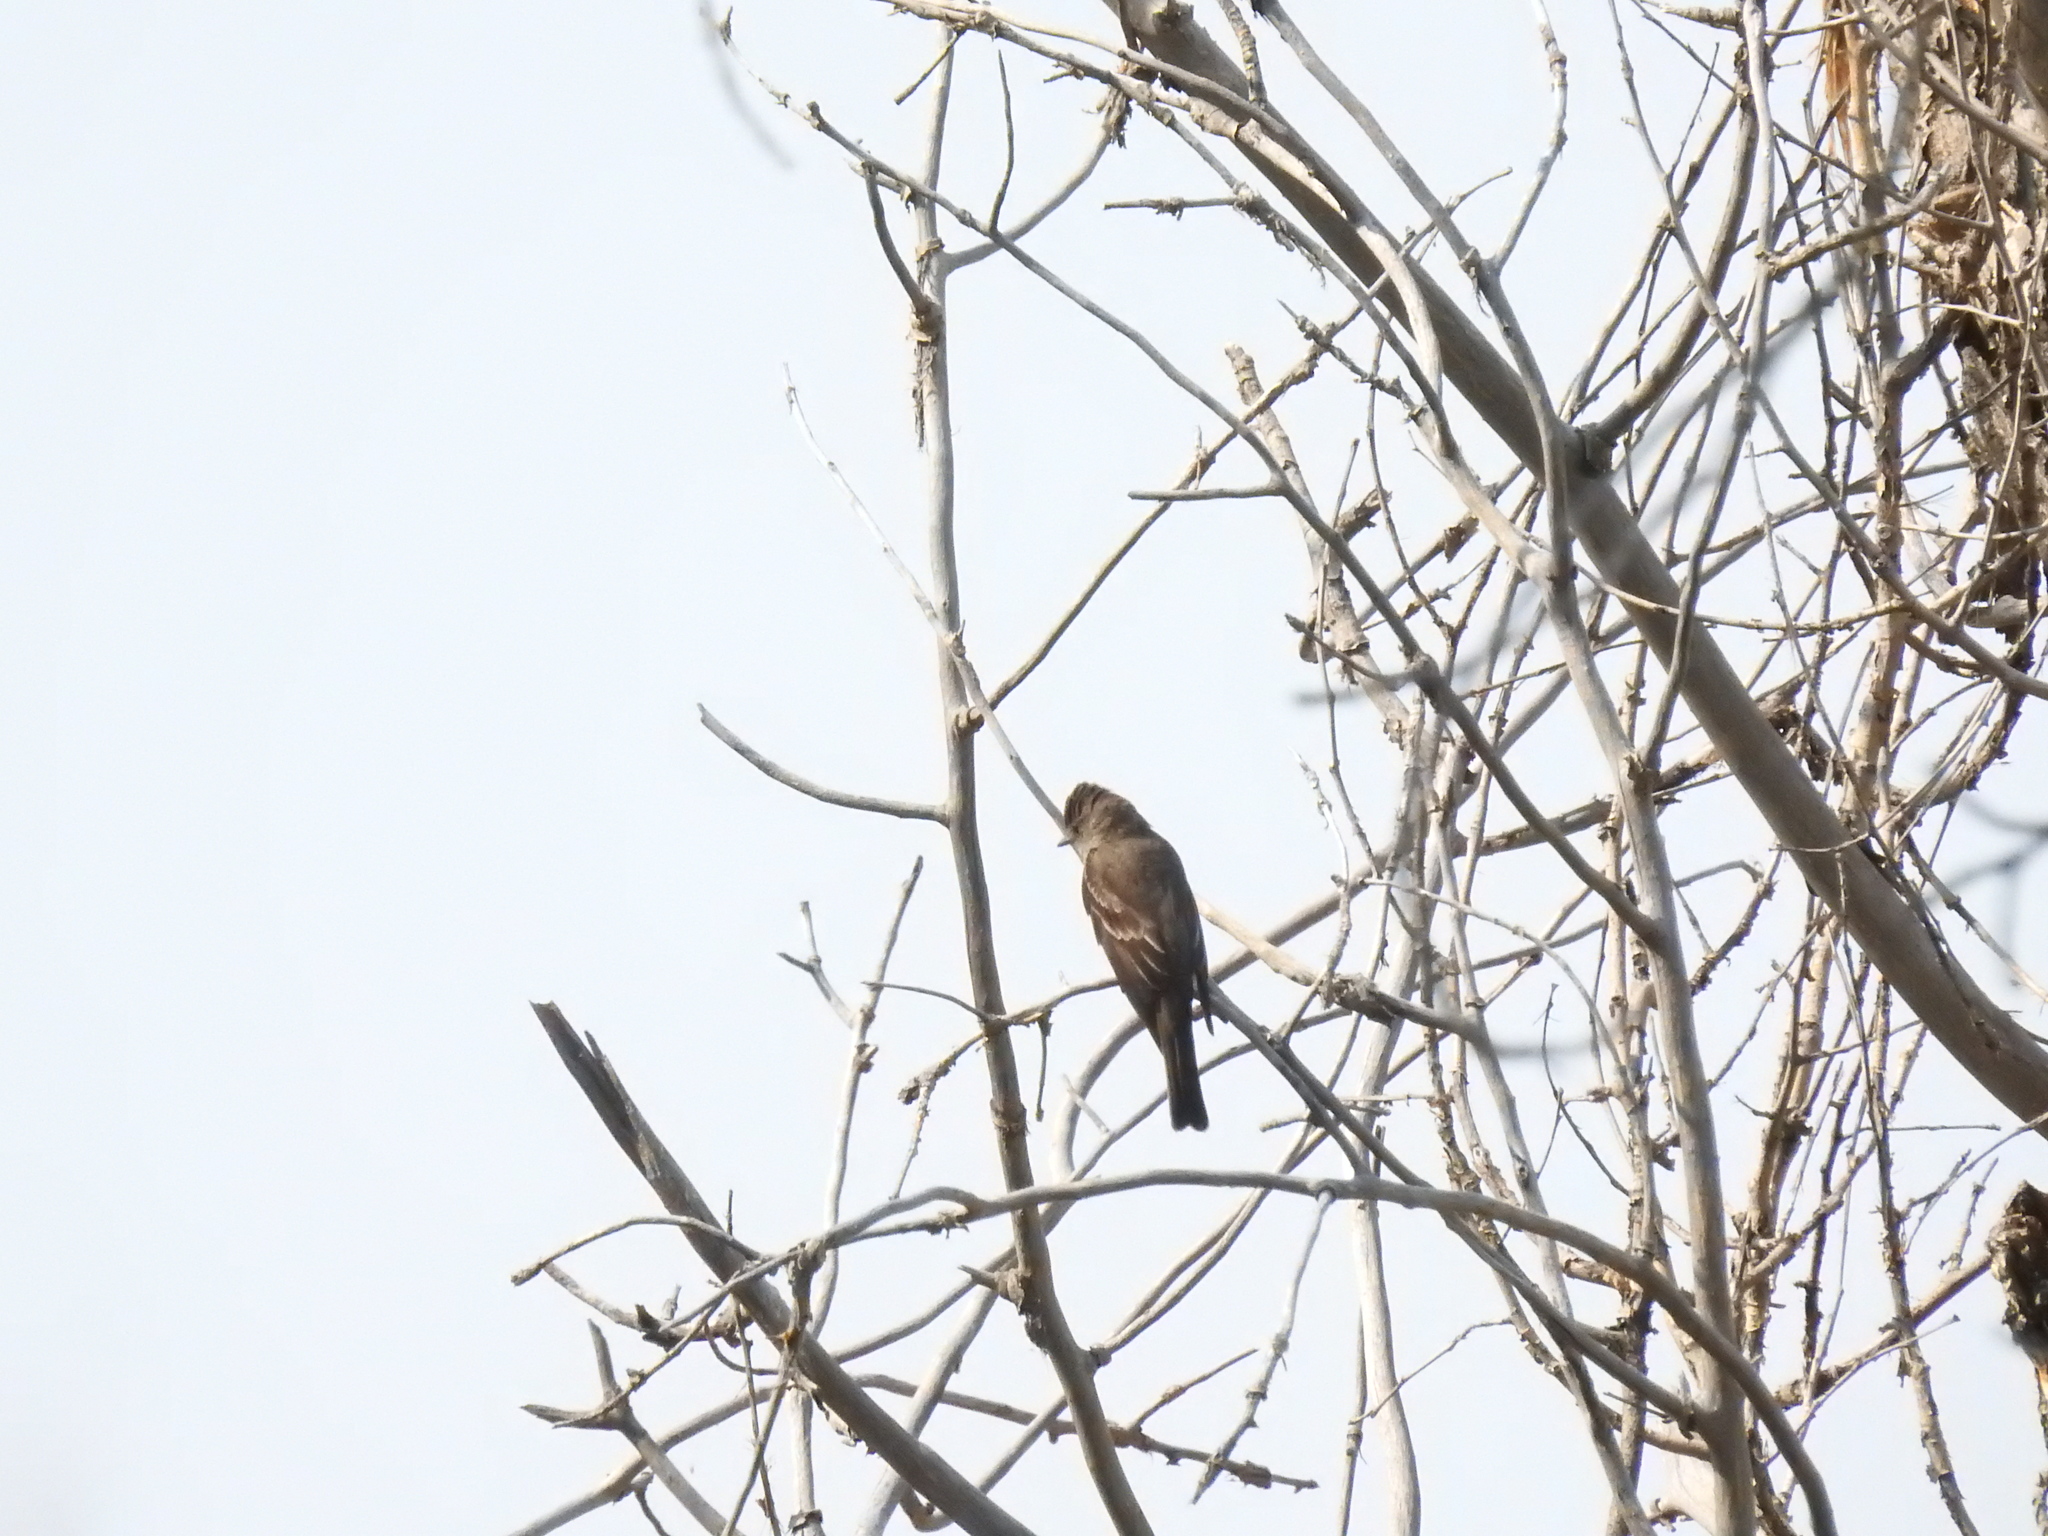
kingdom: Animalia
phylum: Chordata
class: Aves
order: Passeriformes
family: Tyrannidae
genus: Contopus
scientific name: Contopus sordidulus
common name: Western wood-pewee
